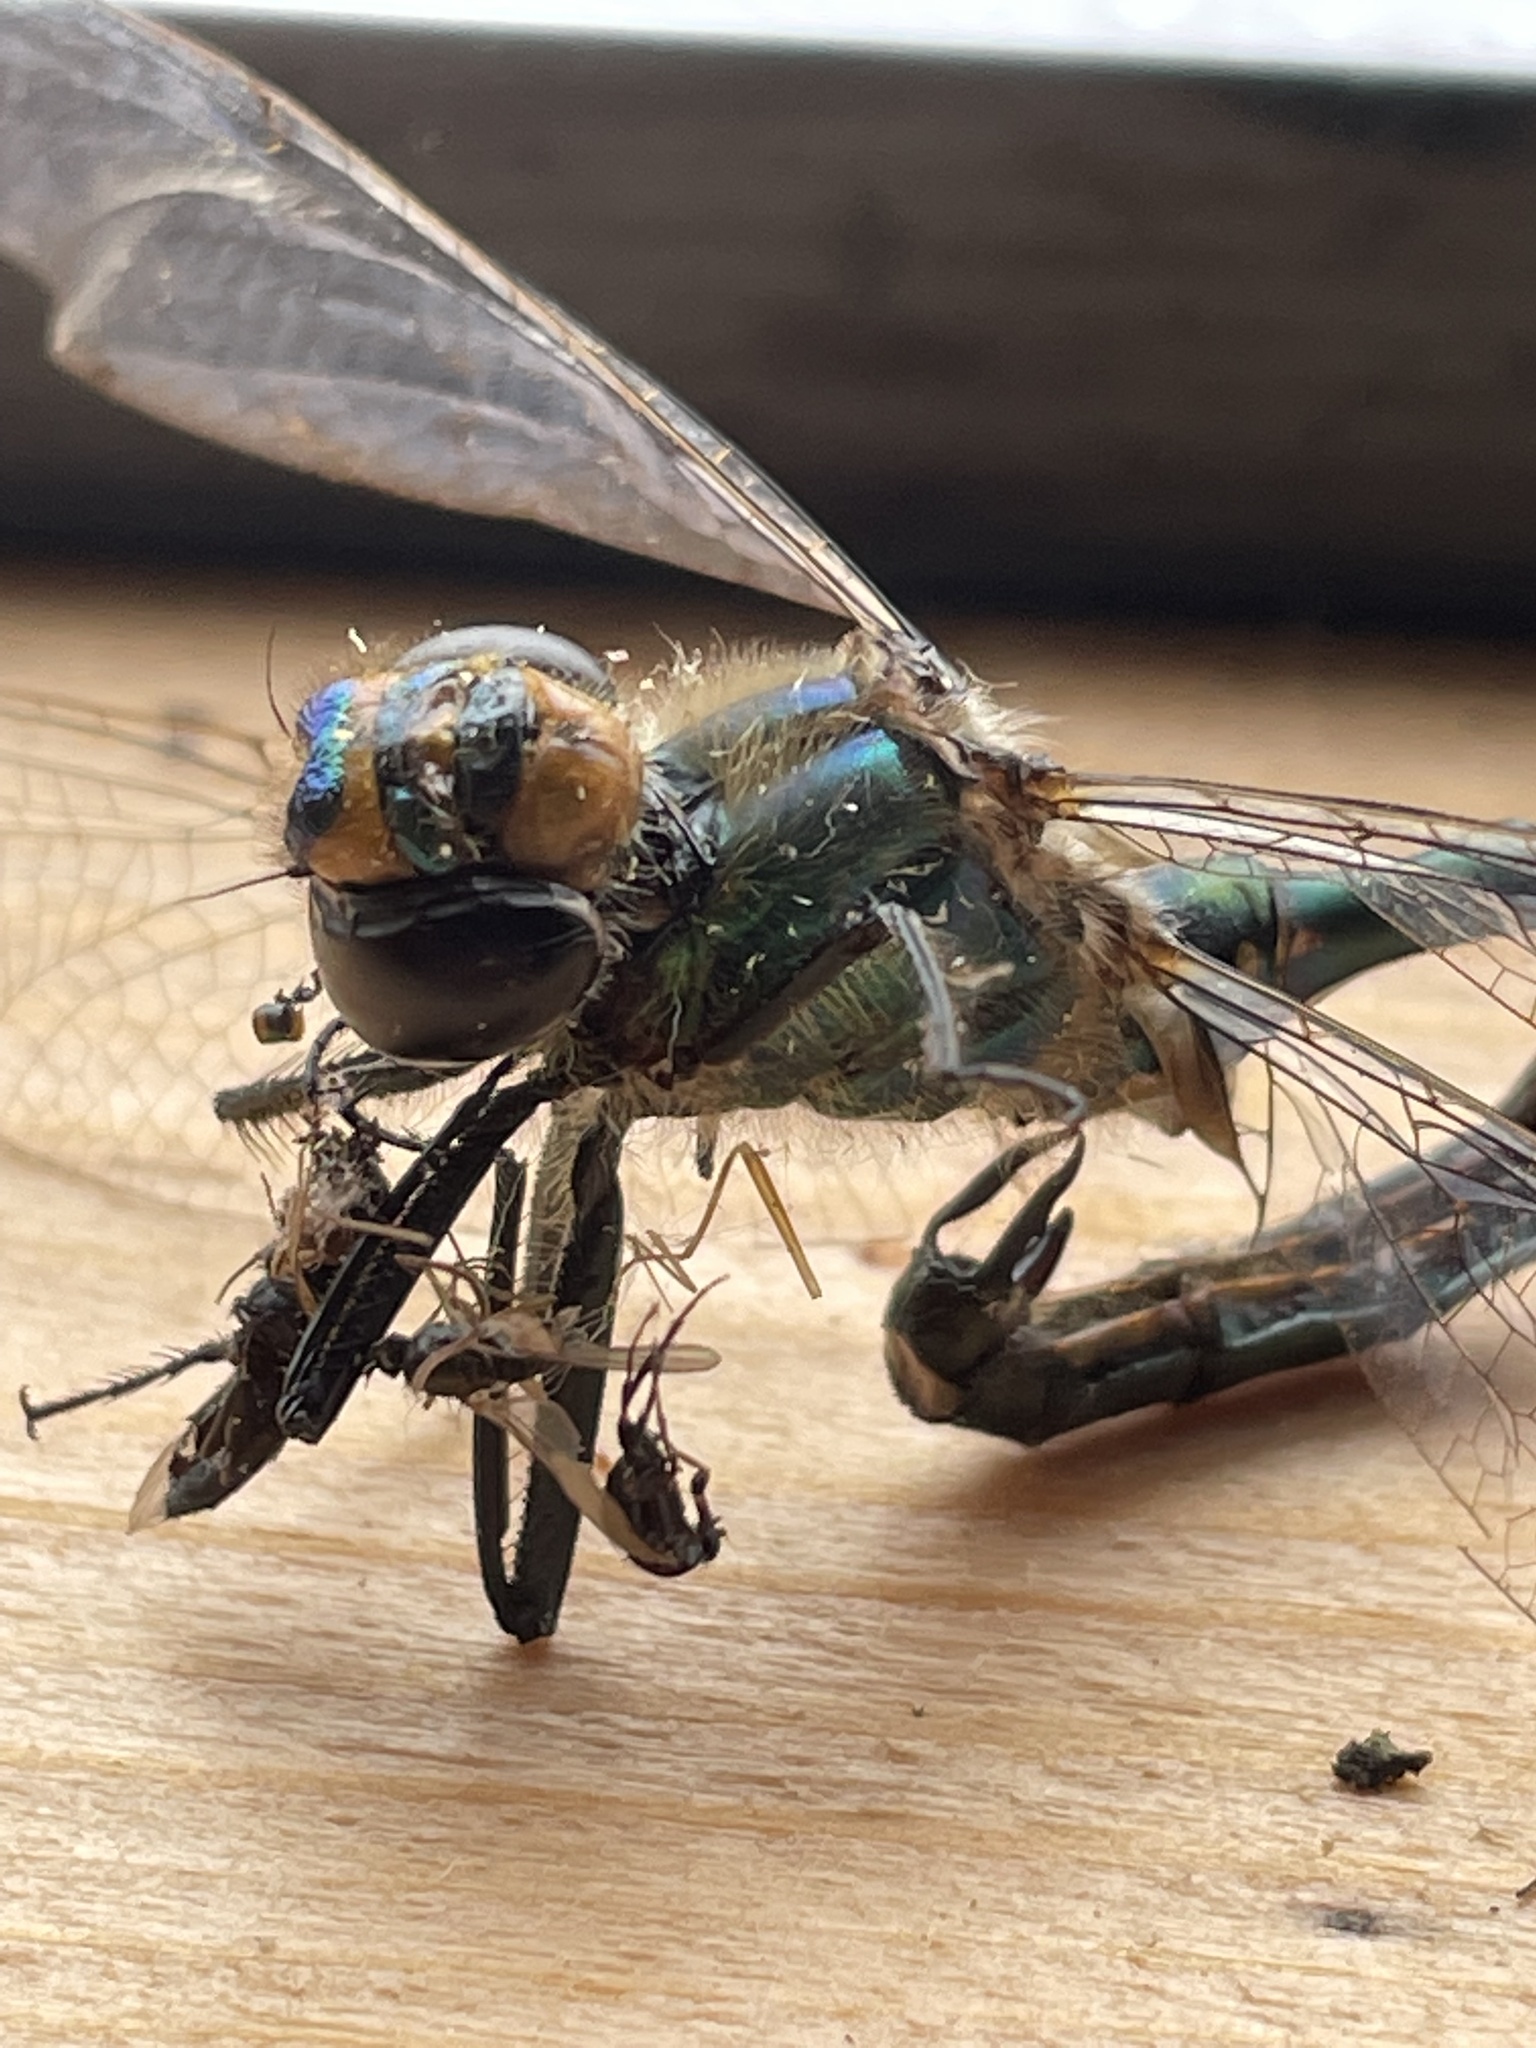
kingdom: Animalia
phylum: Arthropoda
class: Insecta
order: Odonata
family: Corduliidae
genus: Somatochlora
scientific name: Somatochlora metallica
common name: Brilliant emerald
